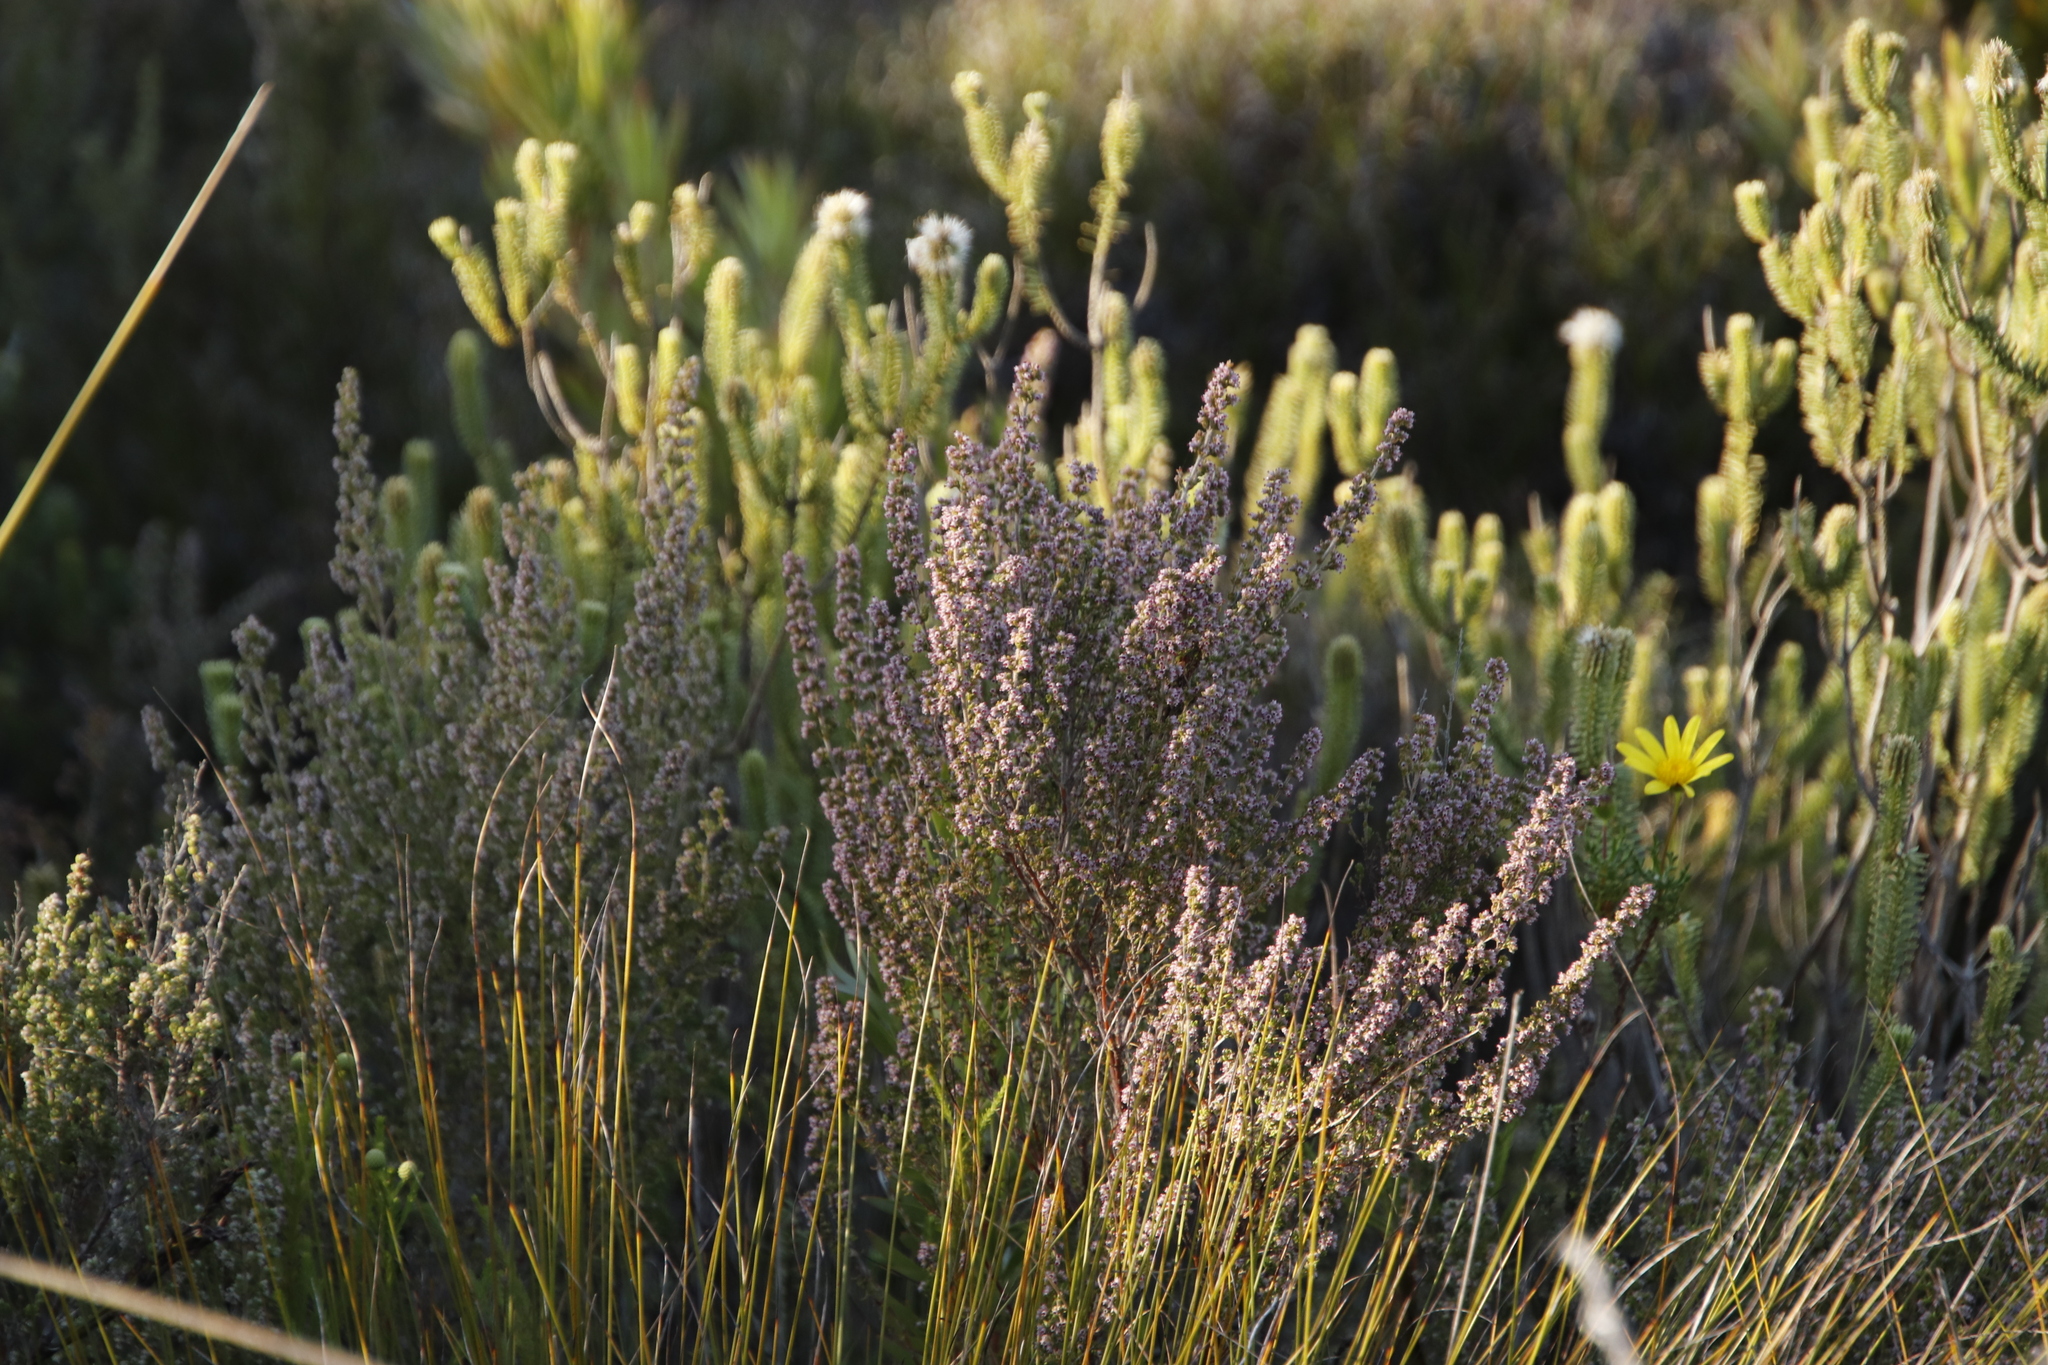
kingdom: Plantae
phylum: Tracheophyta
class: Magnoliopsida
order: Ericales
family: Ericaceae
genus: Erica
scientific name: Erica hispidula
